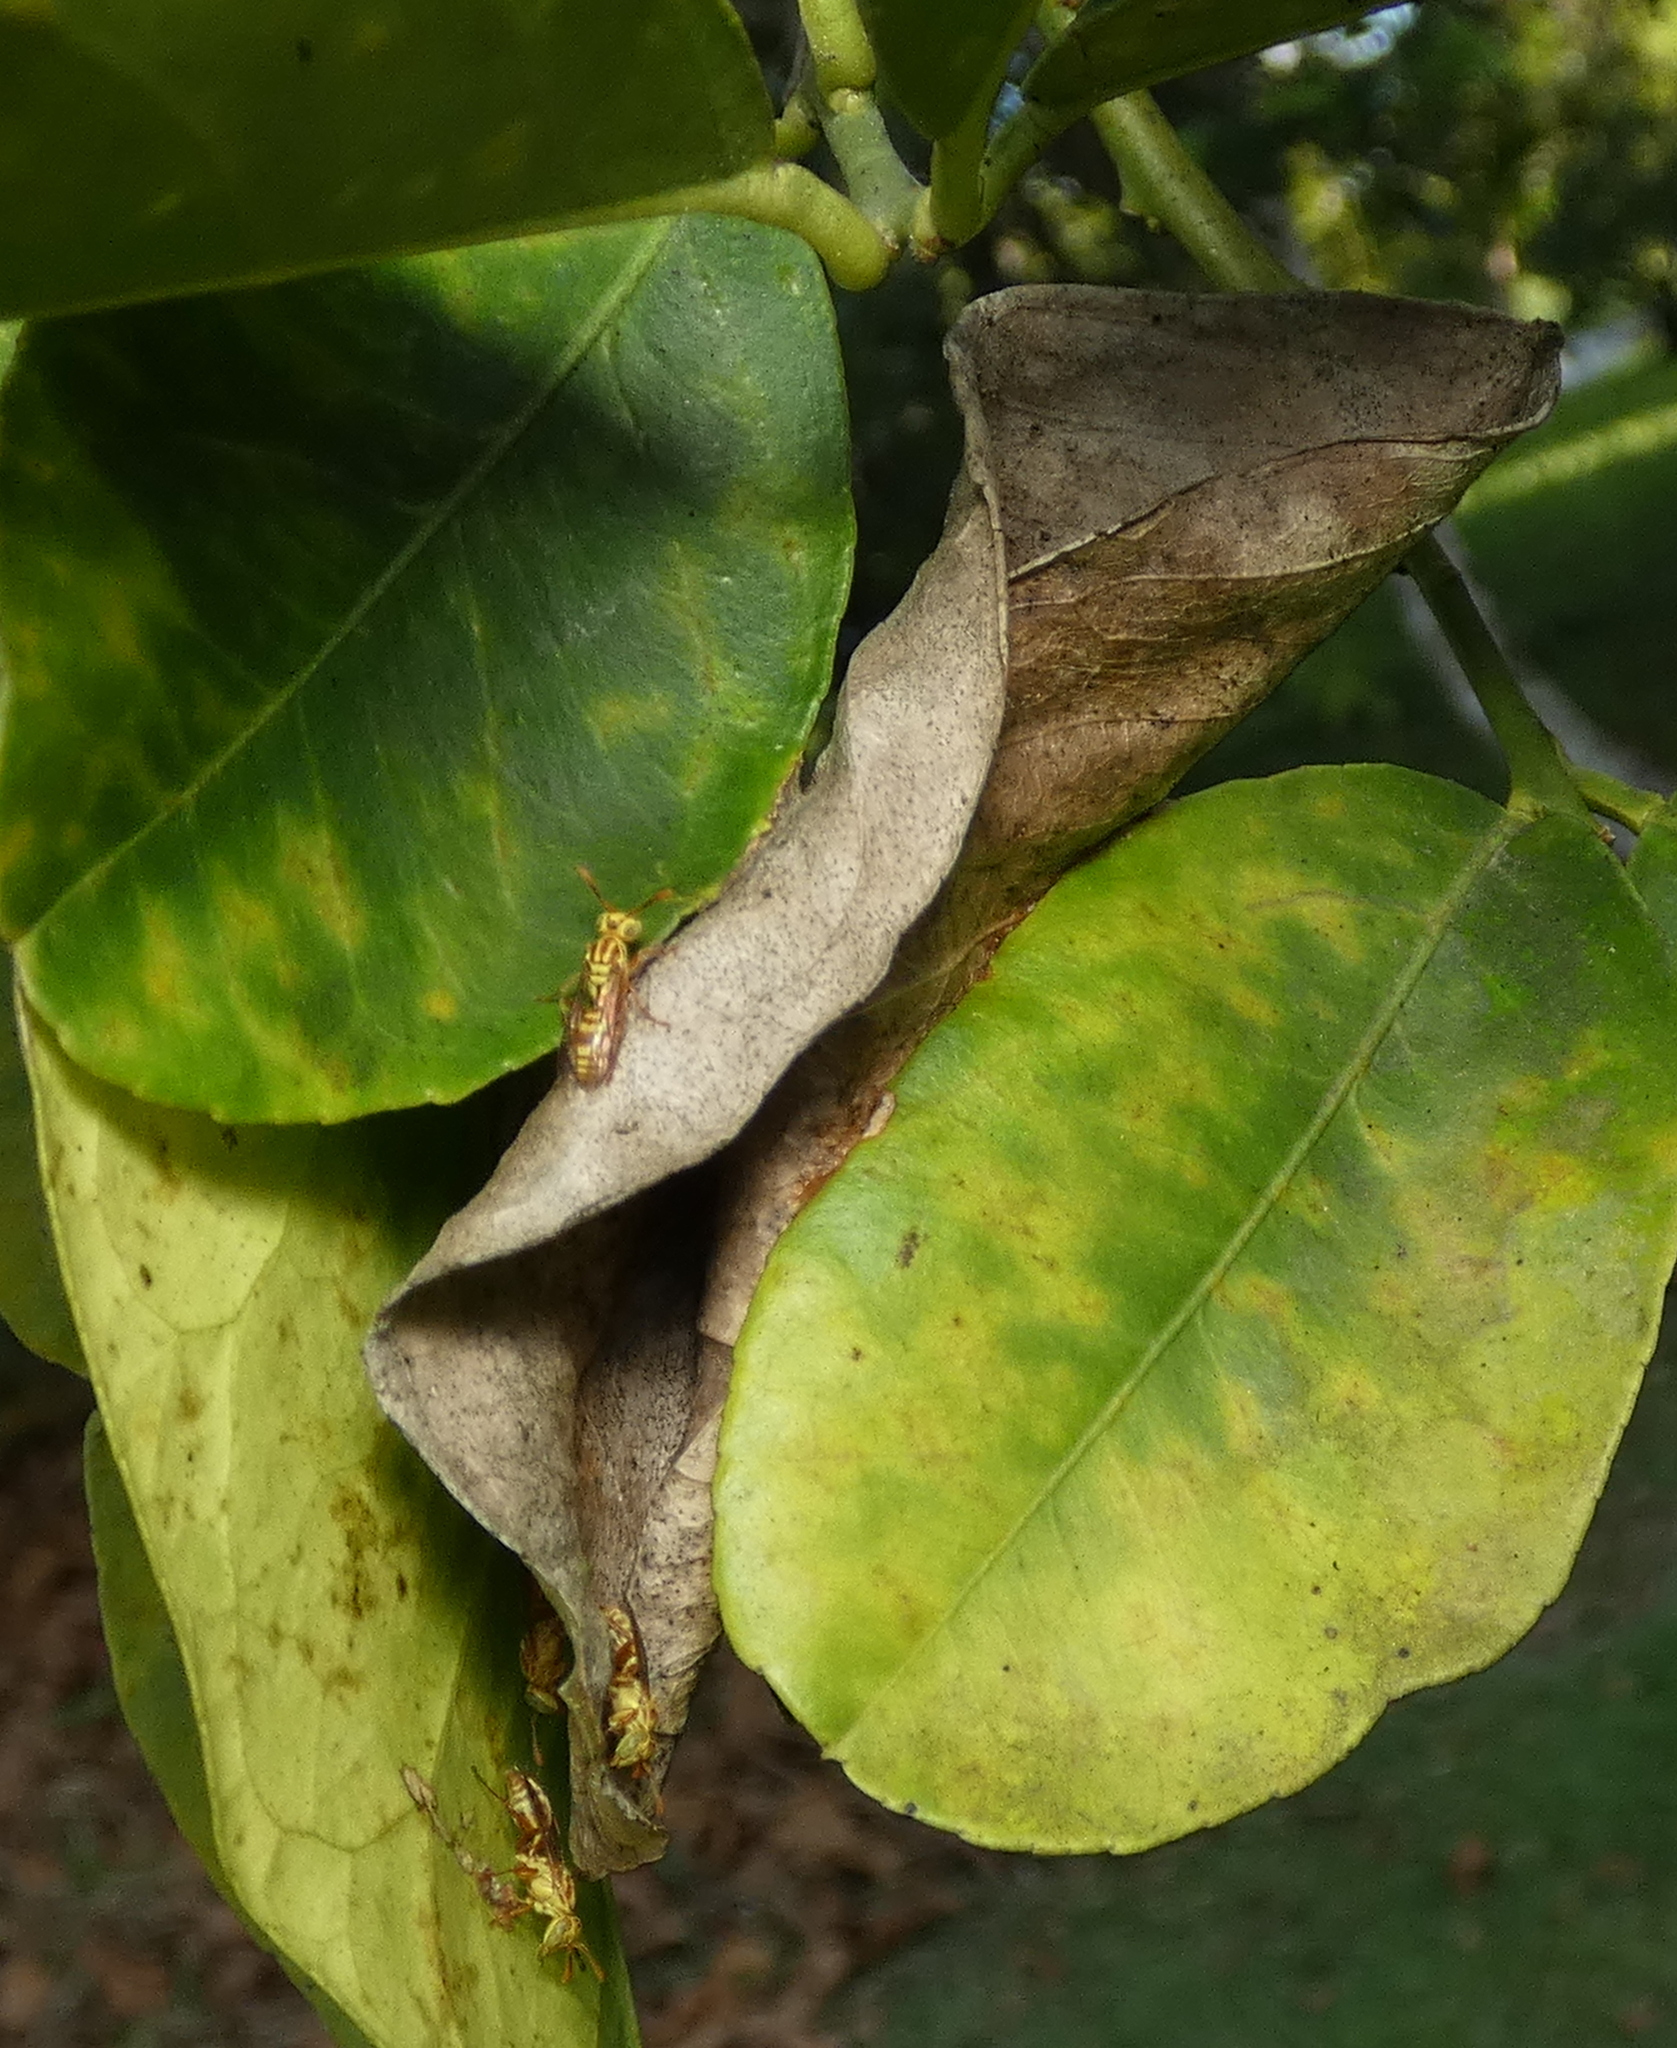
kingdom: Animalia
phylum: Arthropoda
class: Insecta
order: Hymenoptera
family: Vespidae
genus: Protopolybia
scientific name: Protopolybia potiguara
